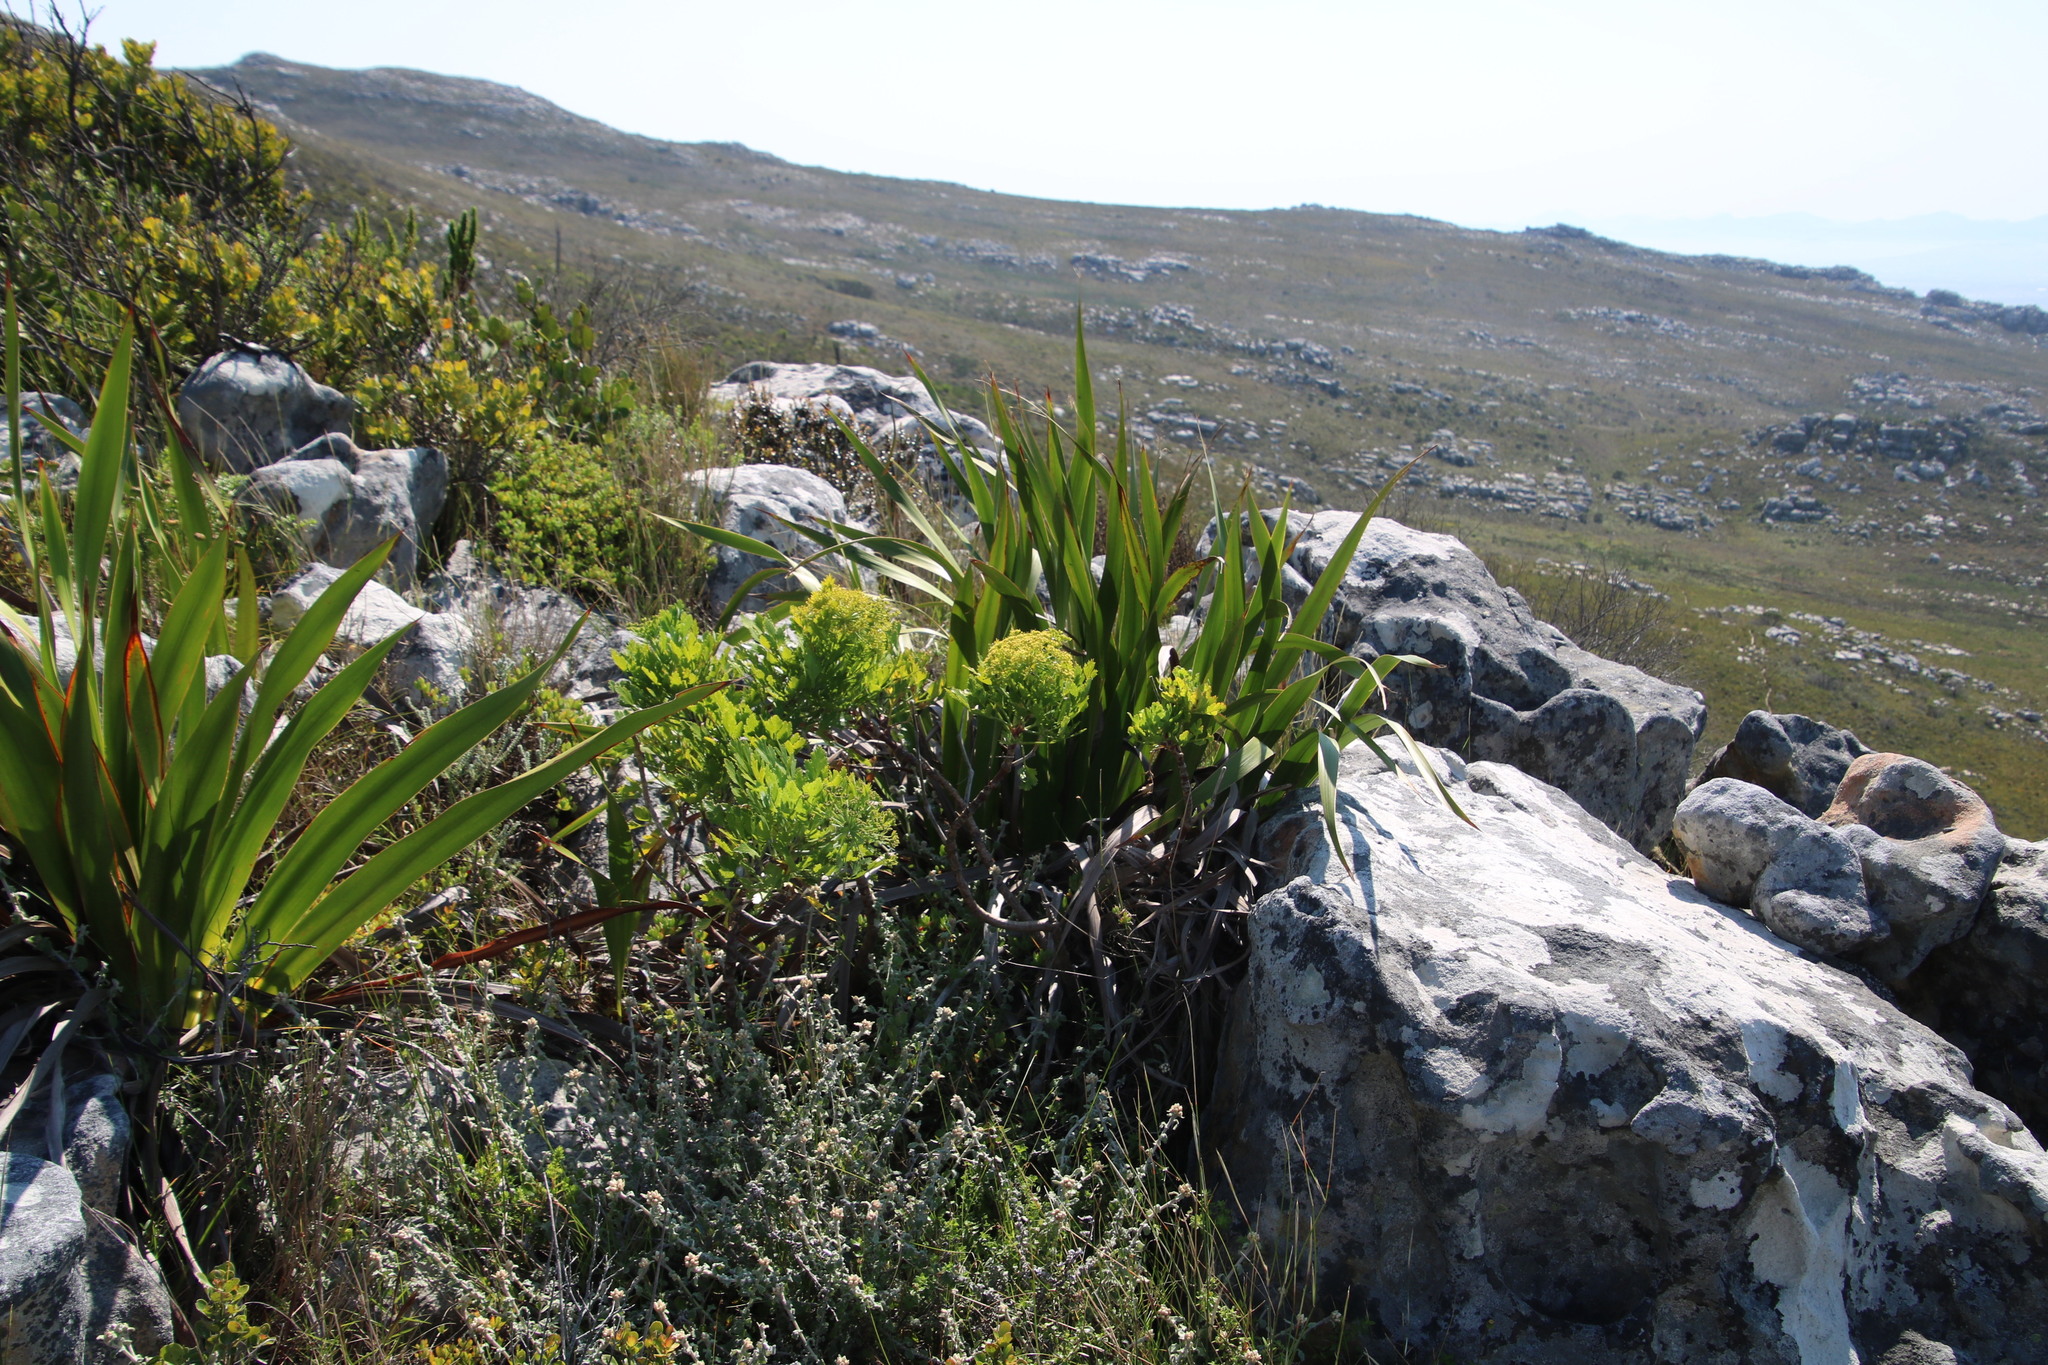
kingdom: Plantae
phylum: Tracheophyta
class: Magnoliopsida
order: Apiales
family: Apiaceae
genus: Notobubon
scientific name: Notobubon galbanum
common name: Blisterbush
